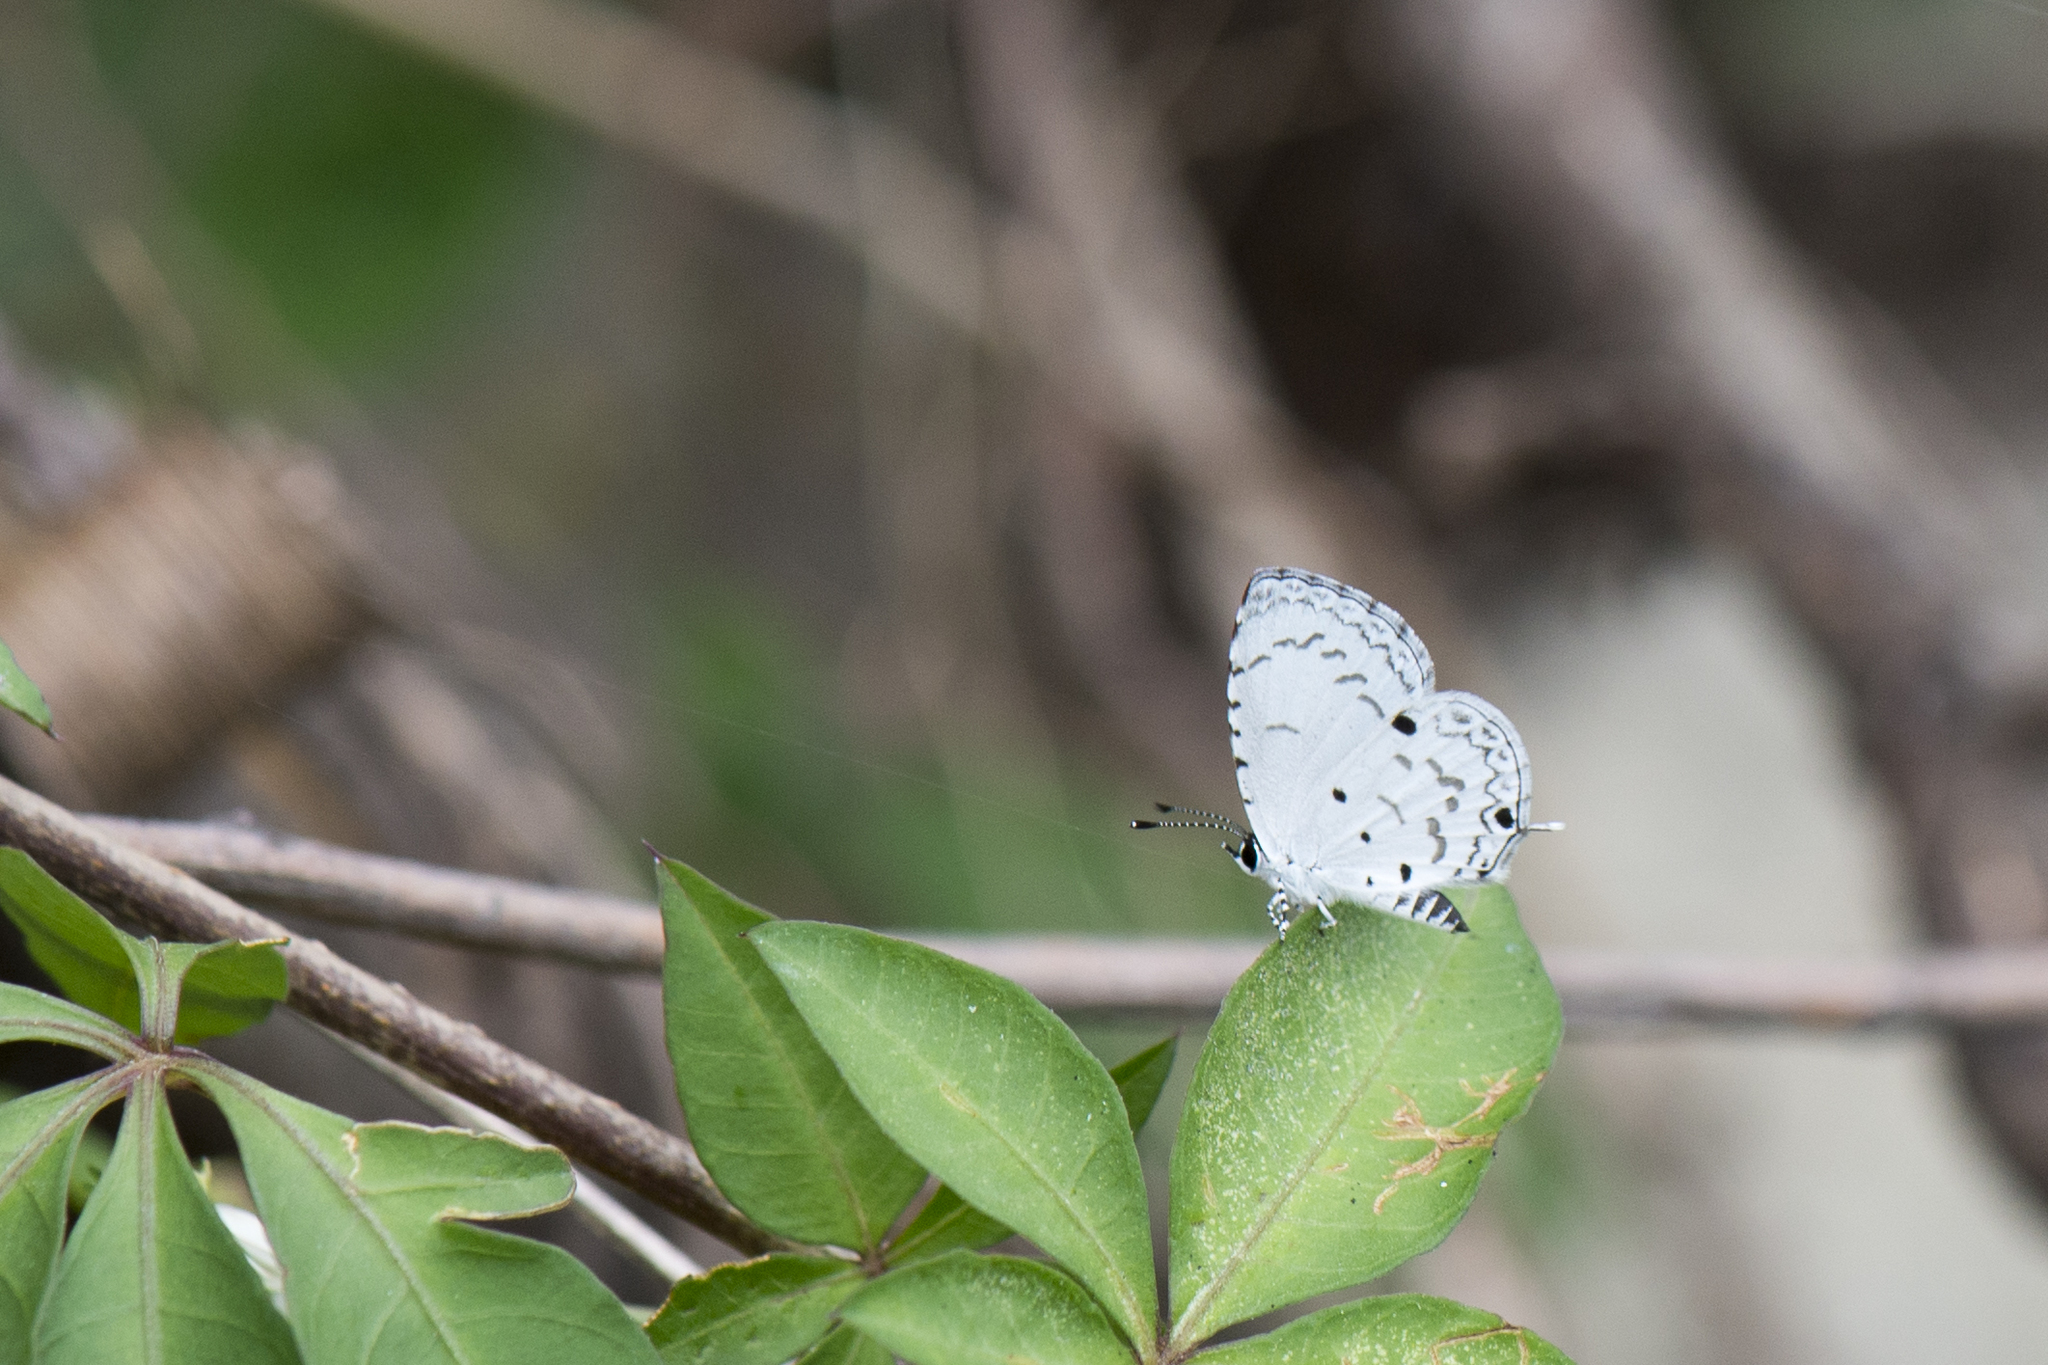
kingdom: Animalia
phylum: Arthropoda
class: Insecta
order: Lepidoptera
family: Lycaenidae
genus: Megisba
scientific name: Megisba malaya
